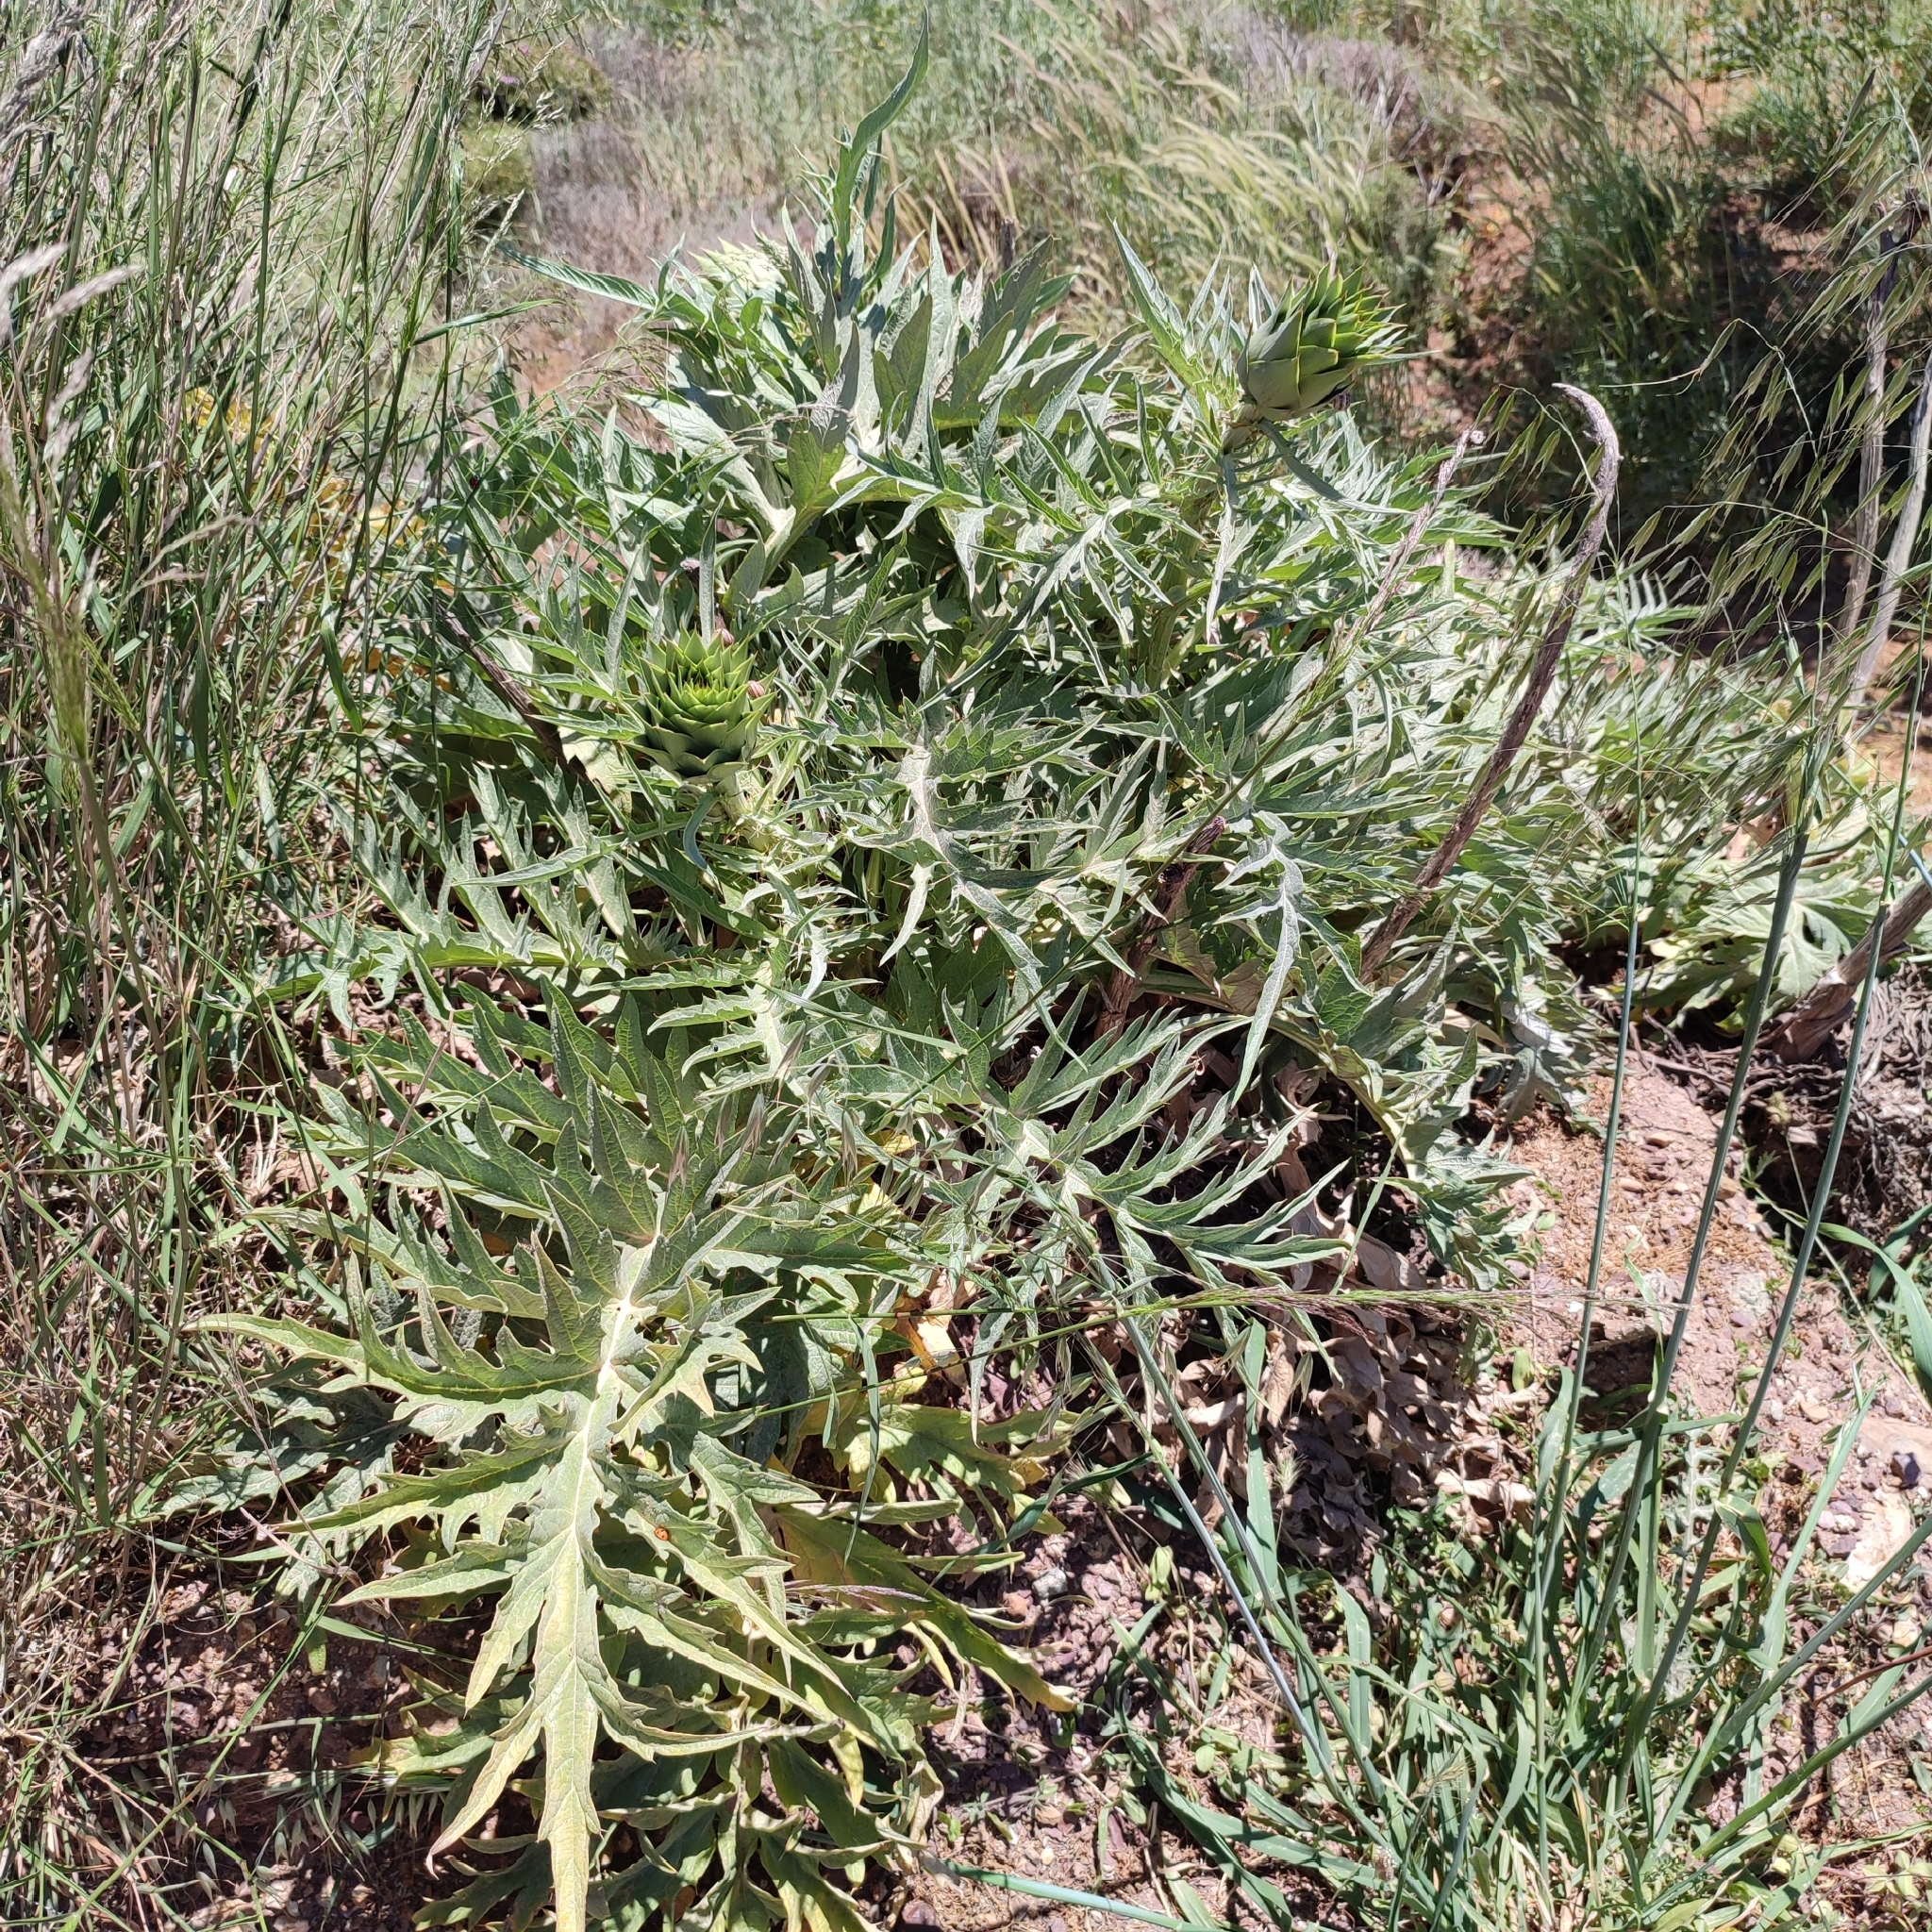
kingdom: Plantae
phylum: Tracheophyta
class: Magnoliopsida
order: Asterales
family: Asteraceae
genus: Cynara
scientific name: Cynara cardunculus
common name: Globe artichoke
